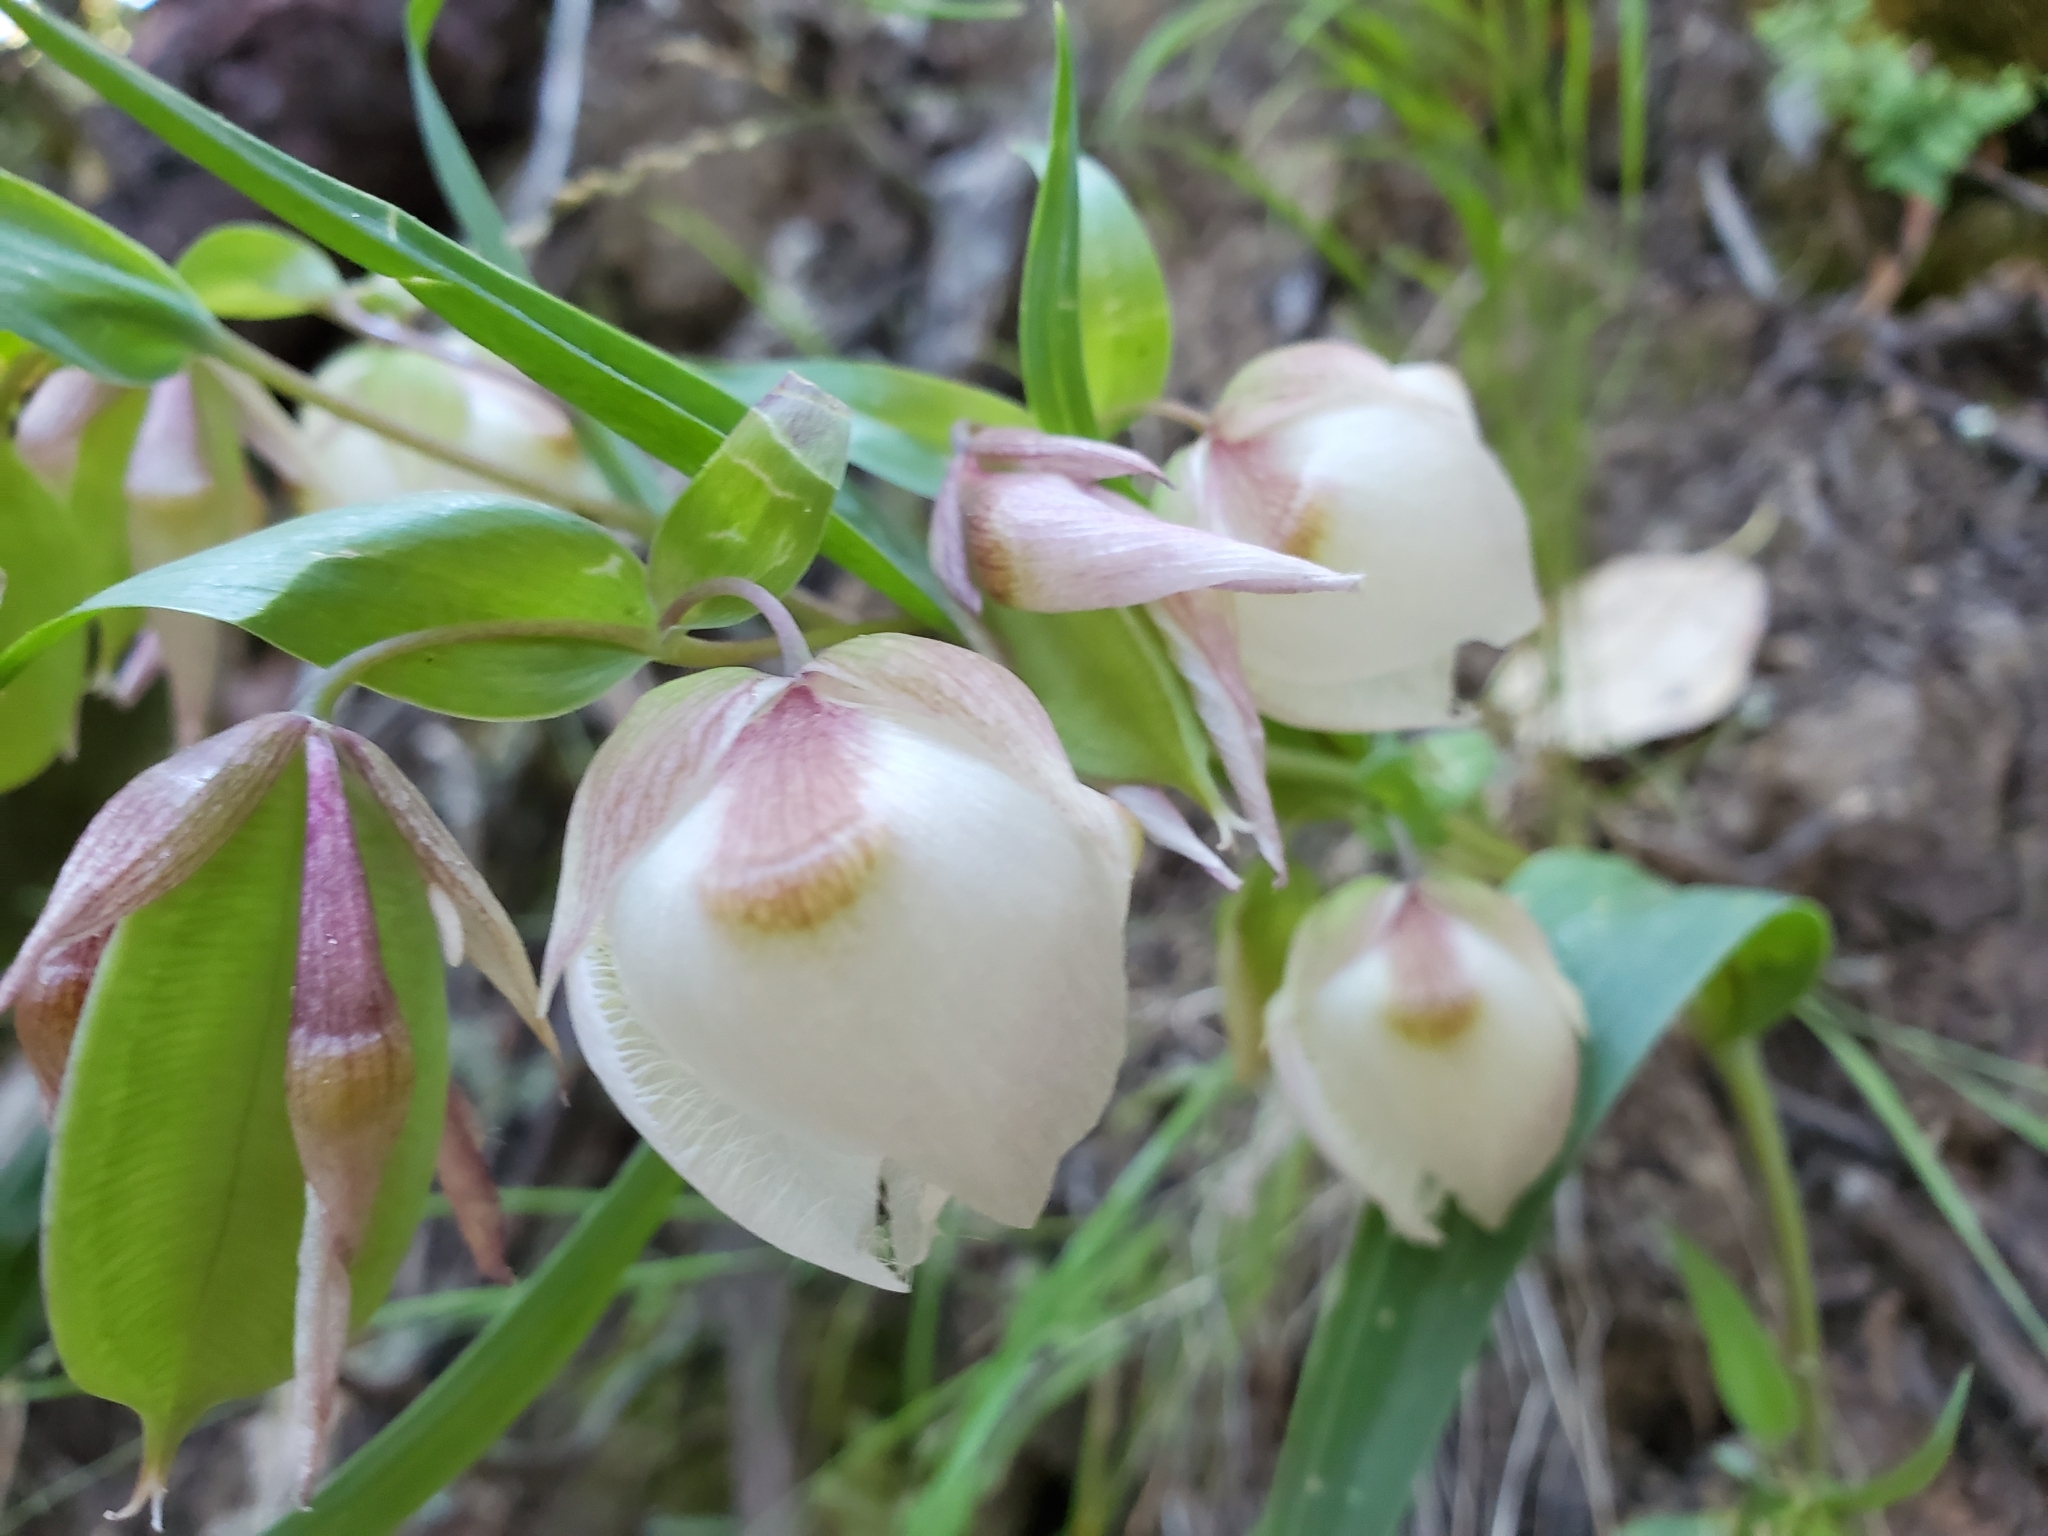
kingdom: Plantae
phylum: Tracheophyta
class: Liliopsida
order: Liliales
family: Liliaceae
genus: Calochortus
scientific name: Calochortus albus
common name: Fairy-lantern
